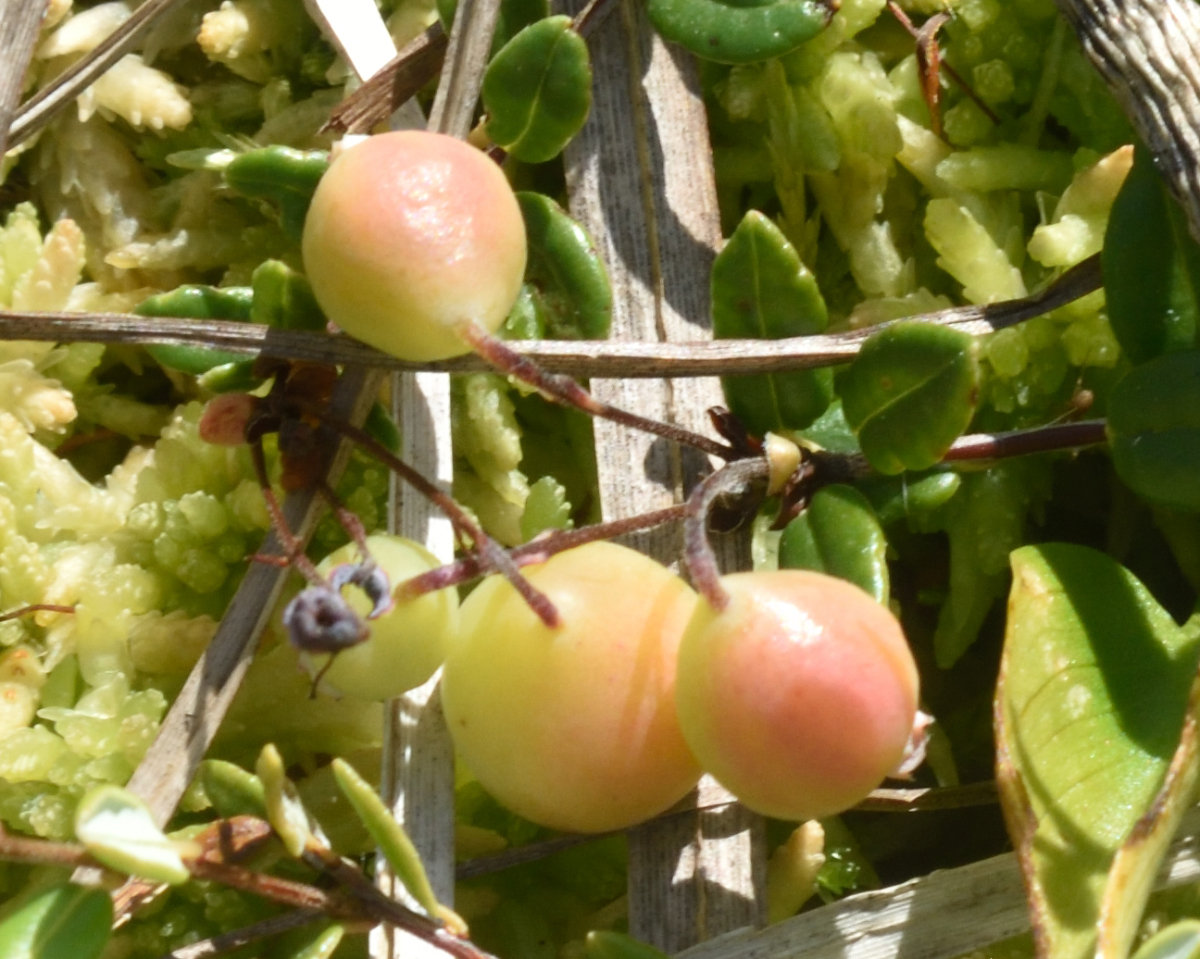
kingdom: Plantae
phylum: Tracheophyta
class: Magnoliopsida
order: Ericales
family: Ericaceae
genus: Vaccinium
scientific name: Vaccinium oxycoccos
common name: Cranberry
